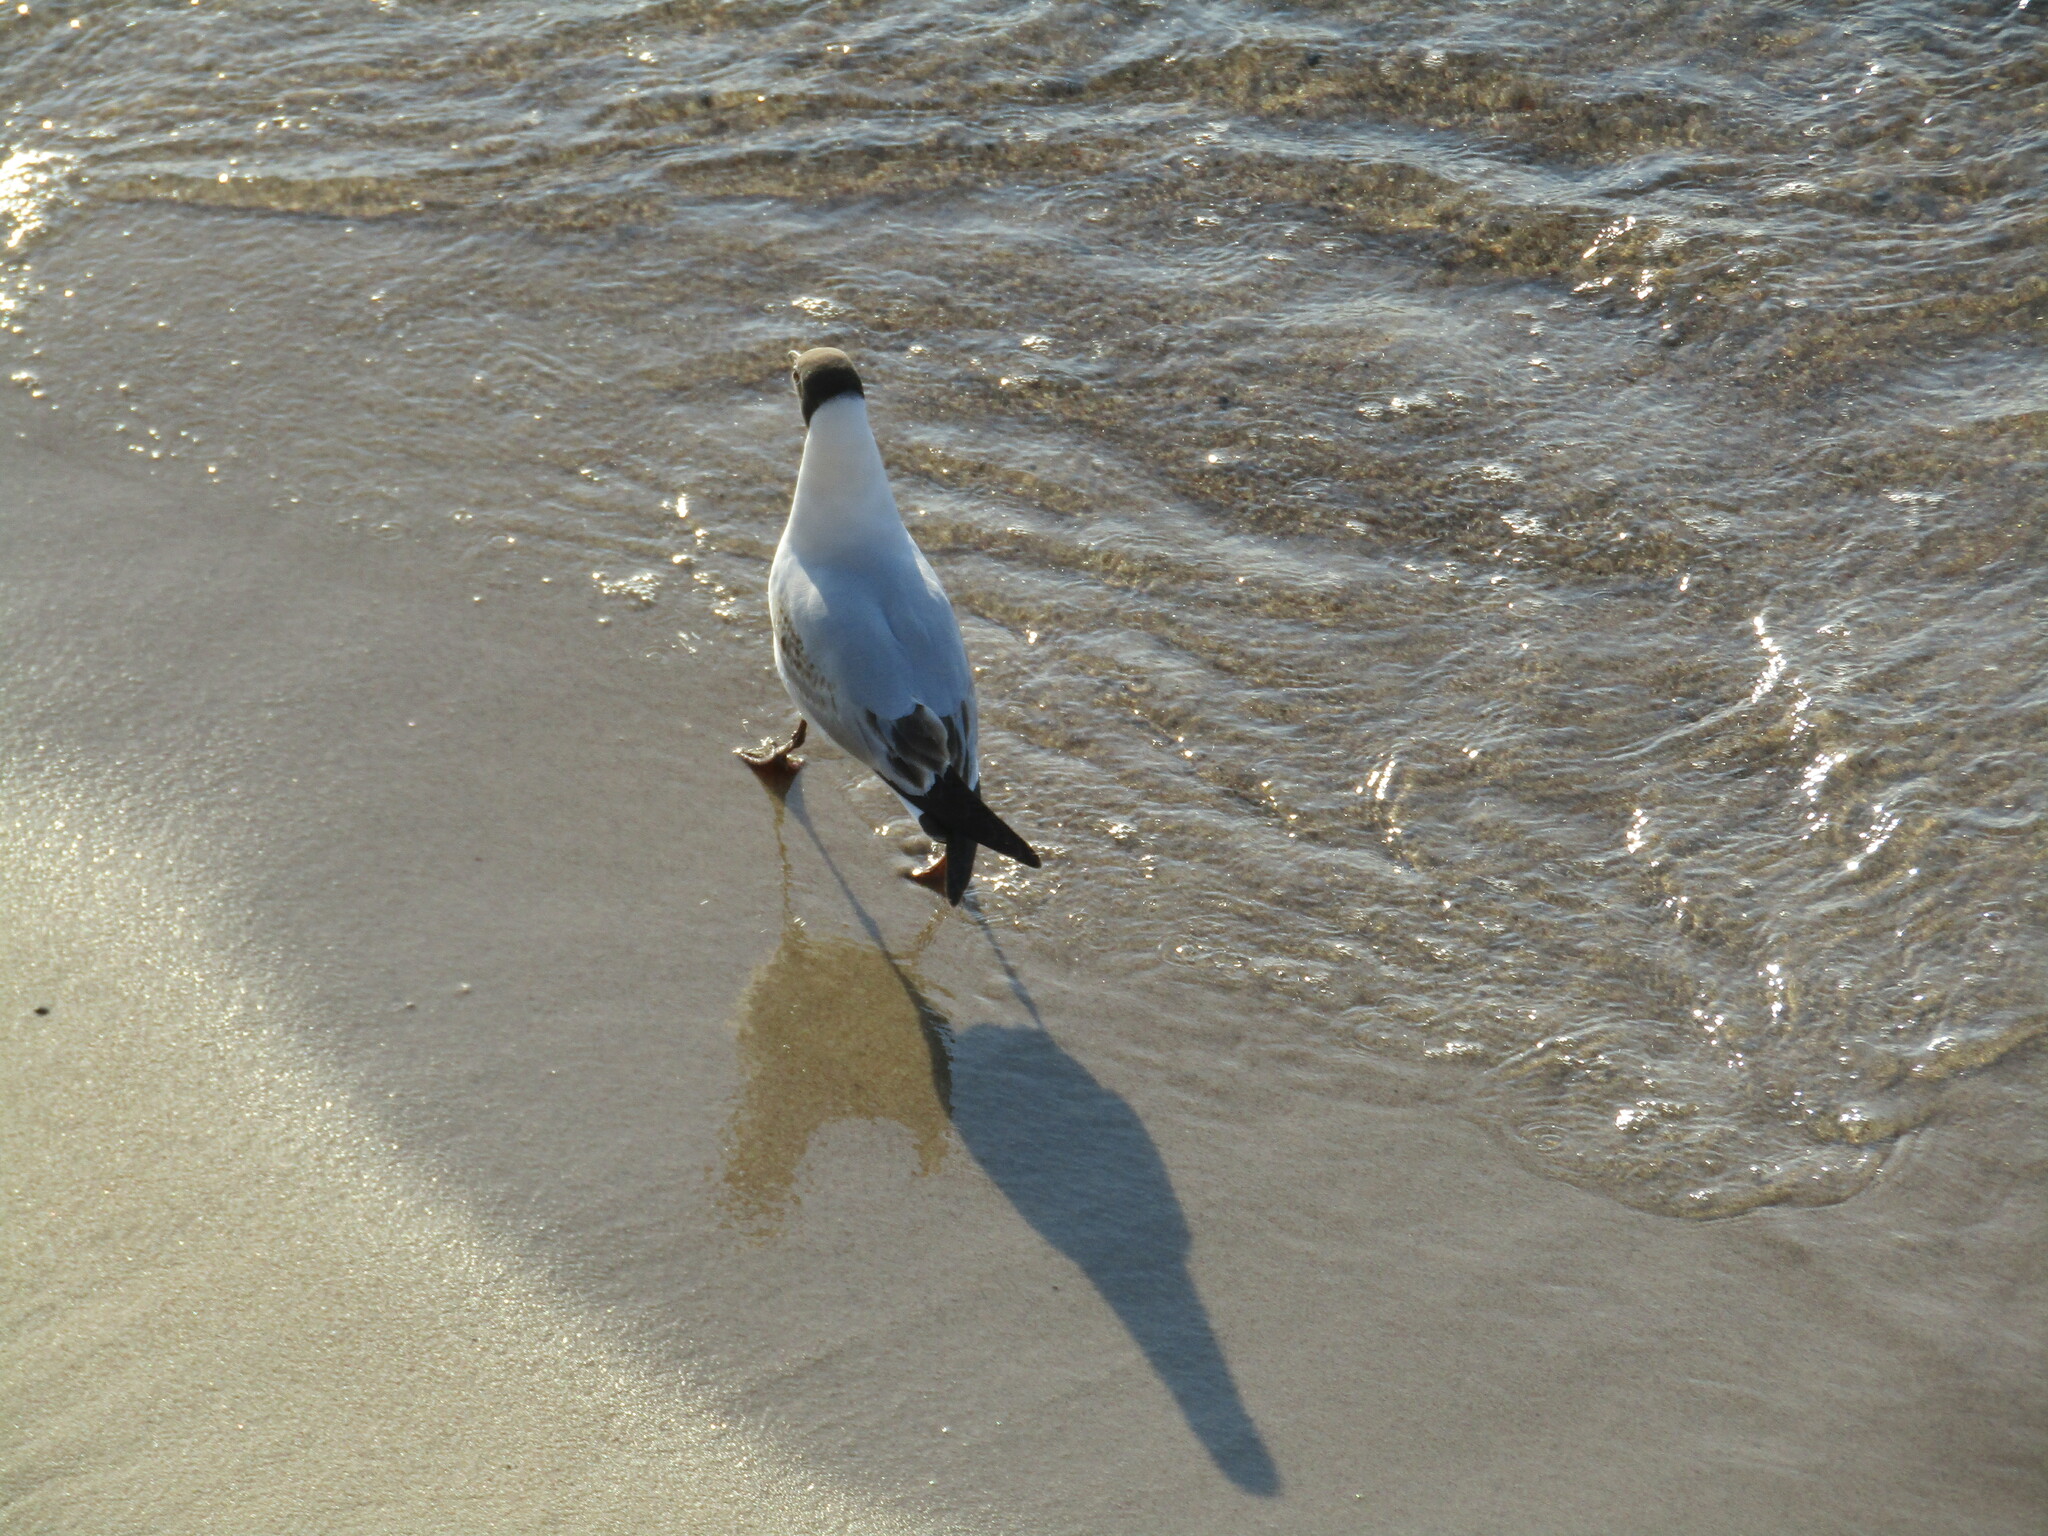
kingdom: Animalia
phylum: Chordata
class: Aves
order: Charadriiformes
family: Laridae
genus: Chroicocephalus
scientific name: Chroicocephalus ridibundus
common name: Black-headed gull
